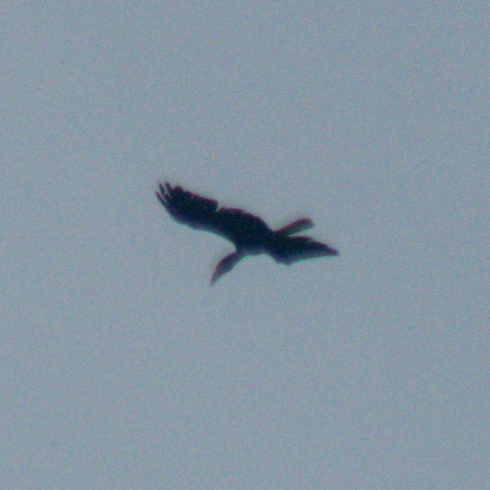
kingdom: Animalia
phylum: Chordata
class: Aves
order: Bucerotiformes
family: Bucerotidae
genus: Rhyticeros
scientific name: Rhyticeros undulatus
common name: Wreathed hornbill
